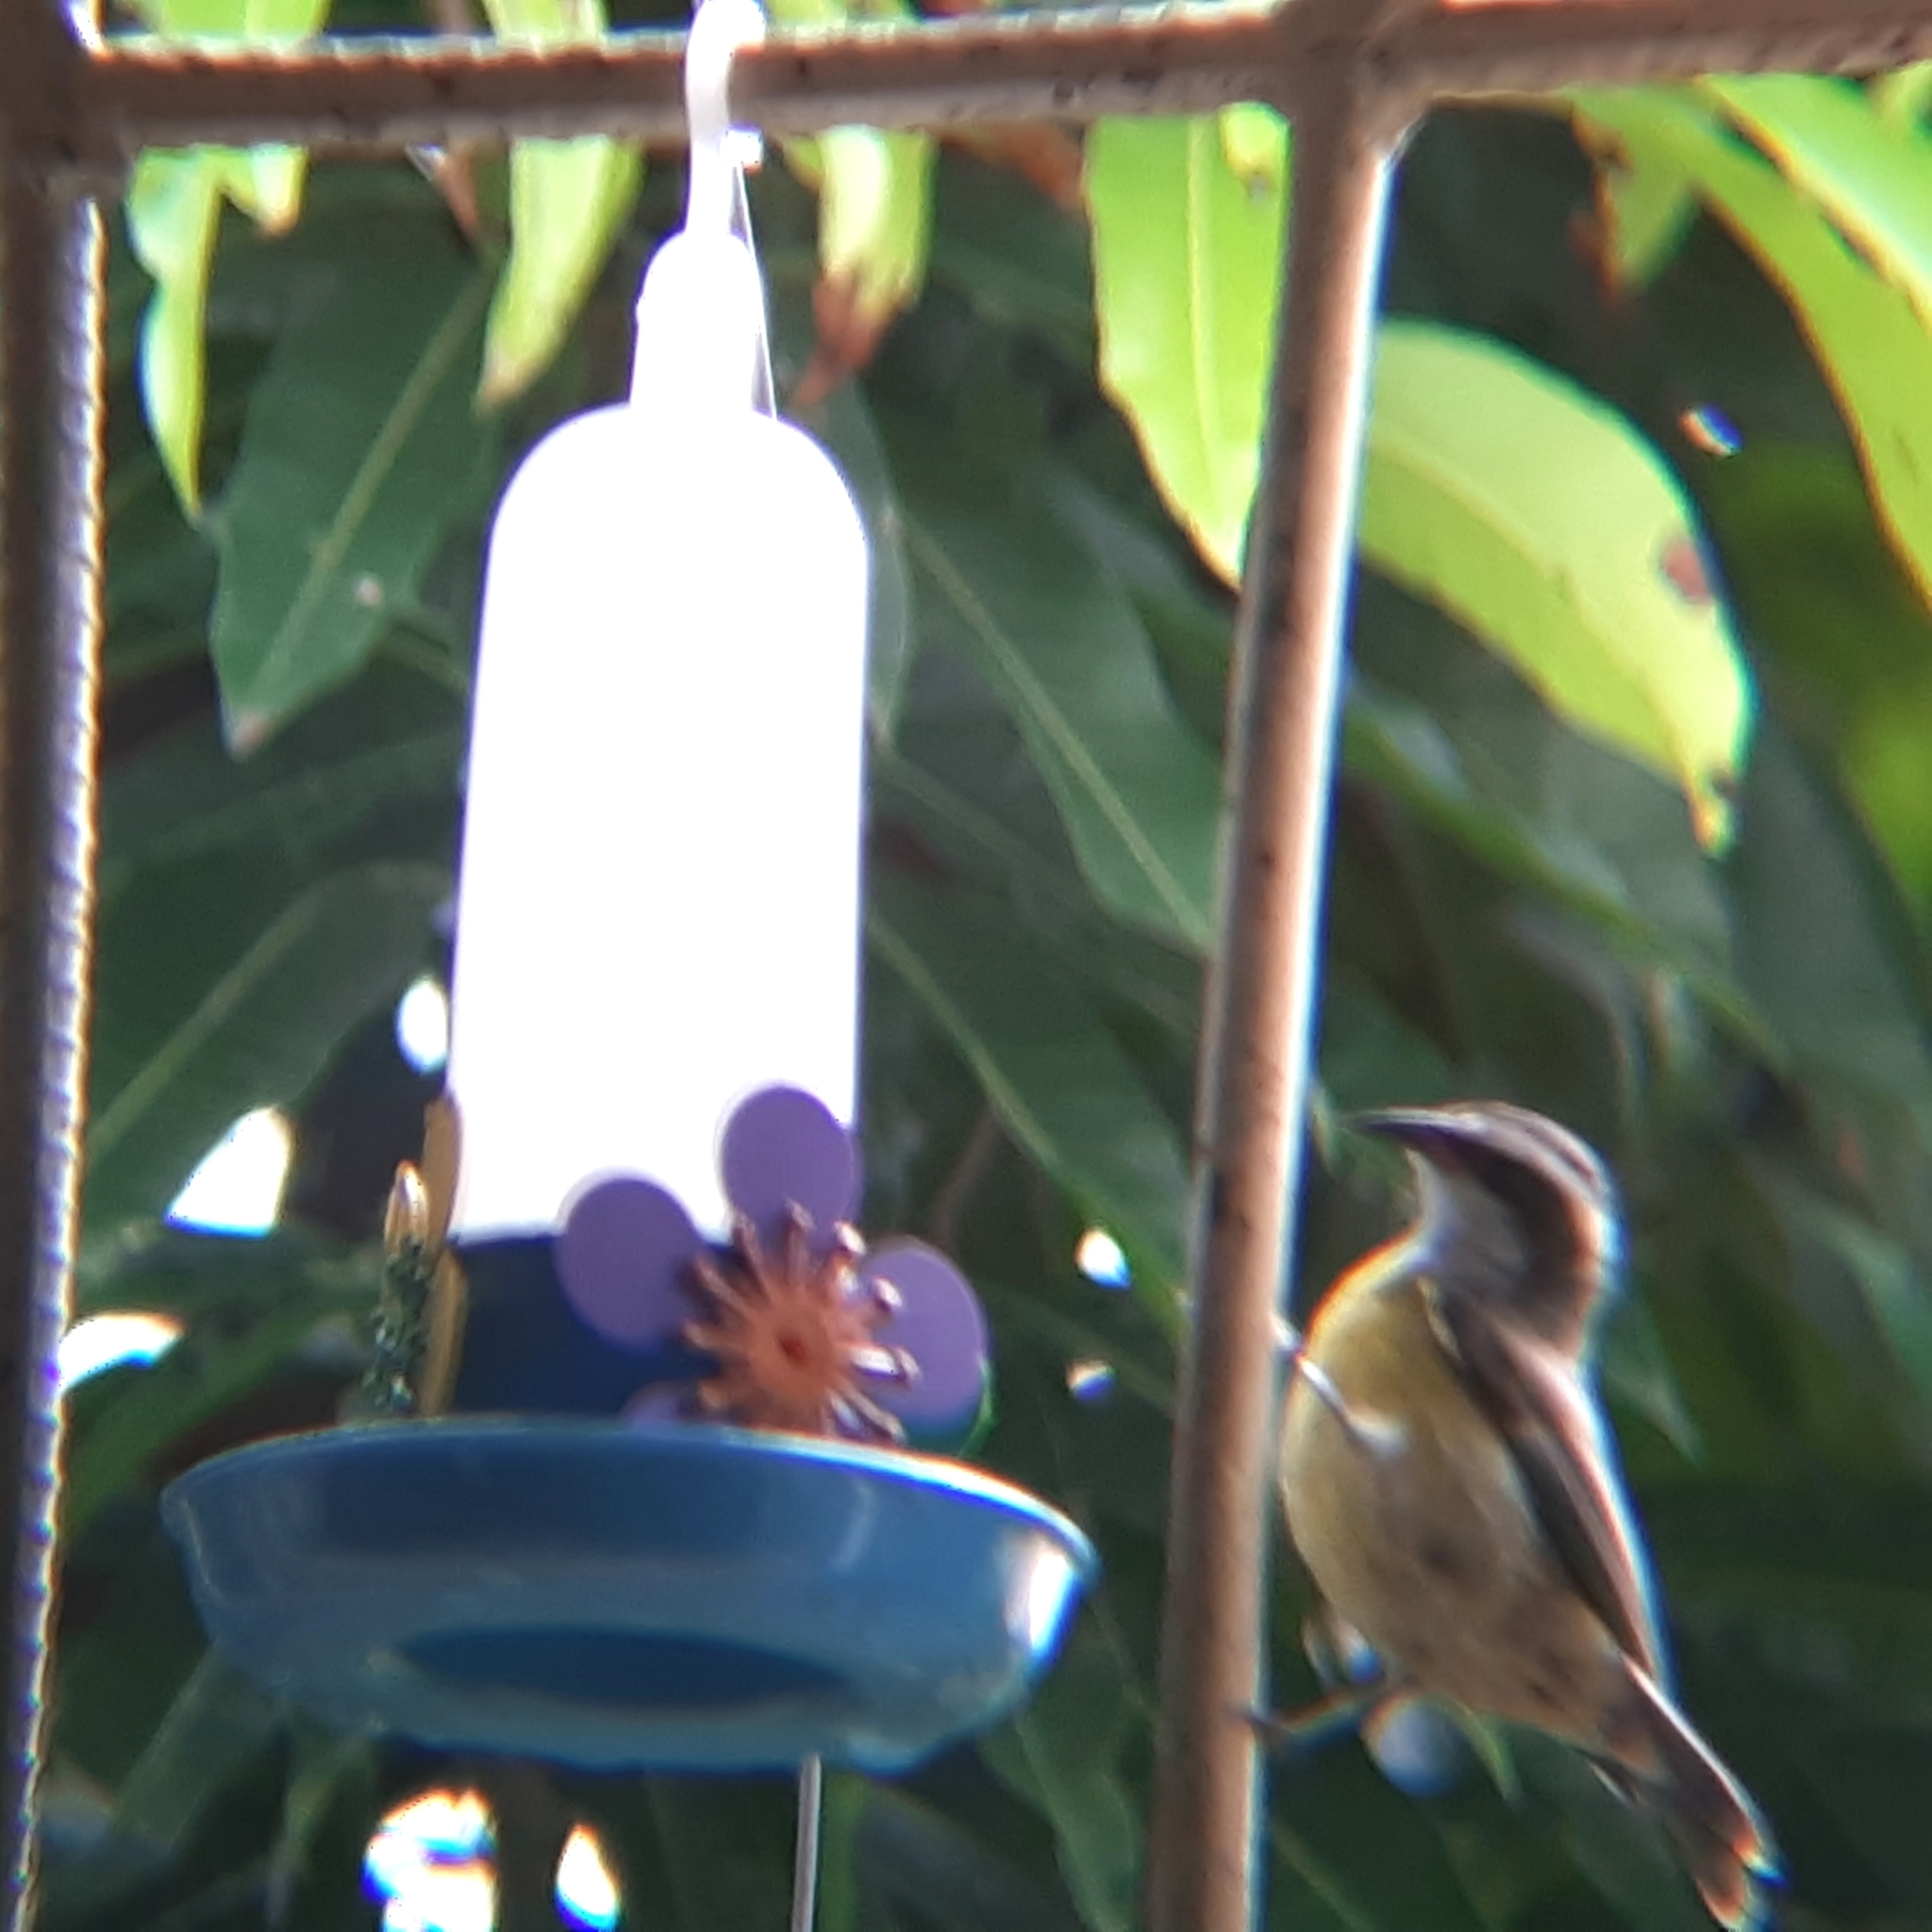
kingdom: Animalia
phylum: Chordata
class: Aves
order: Passeriformes
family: Thraupidae
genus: Coereba
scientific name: Coereba flaveola
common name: Bananaquit
